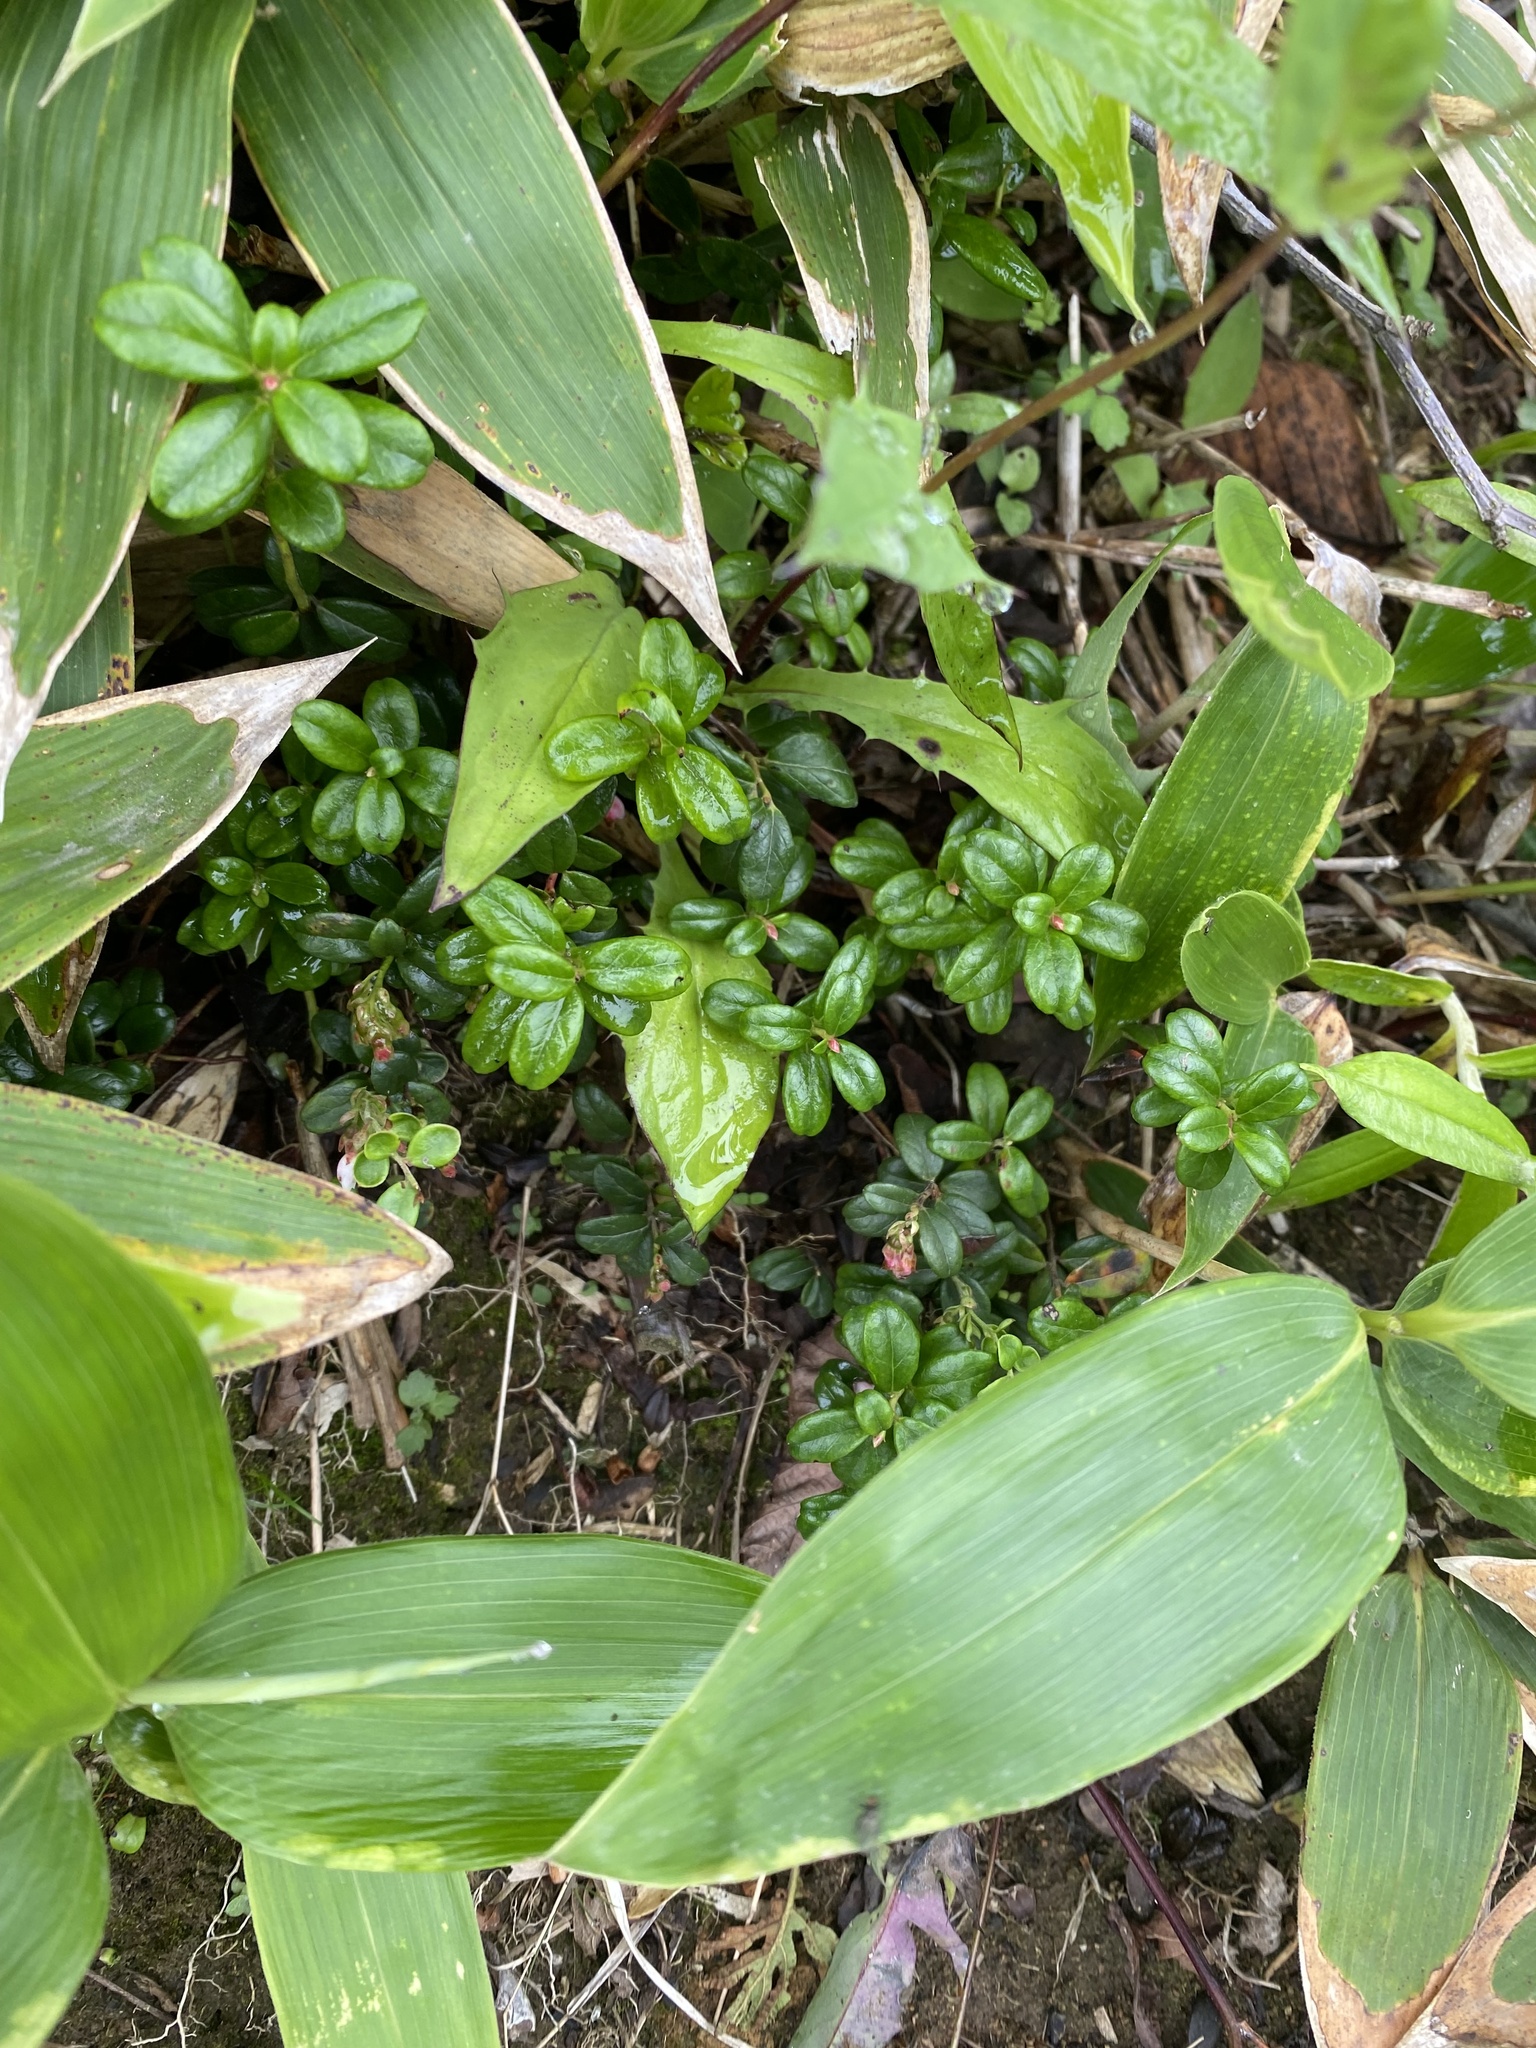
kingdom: Plantae
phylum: Tracheophyta
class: Magnoliopsida
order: Ericales
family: Ericaceae
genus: Vaccinium
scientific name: Vaccinium vitis-idaea
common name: Cowberry
